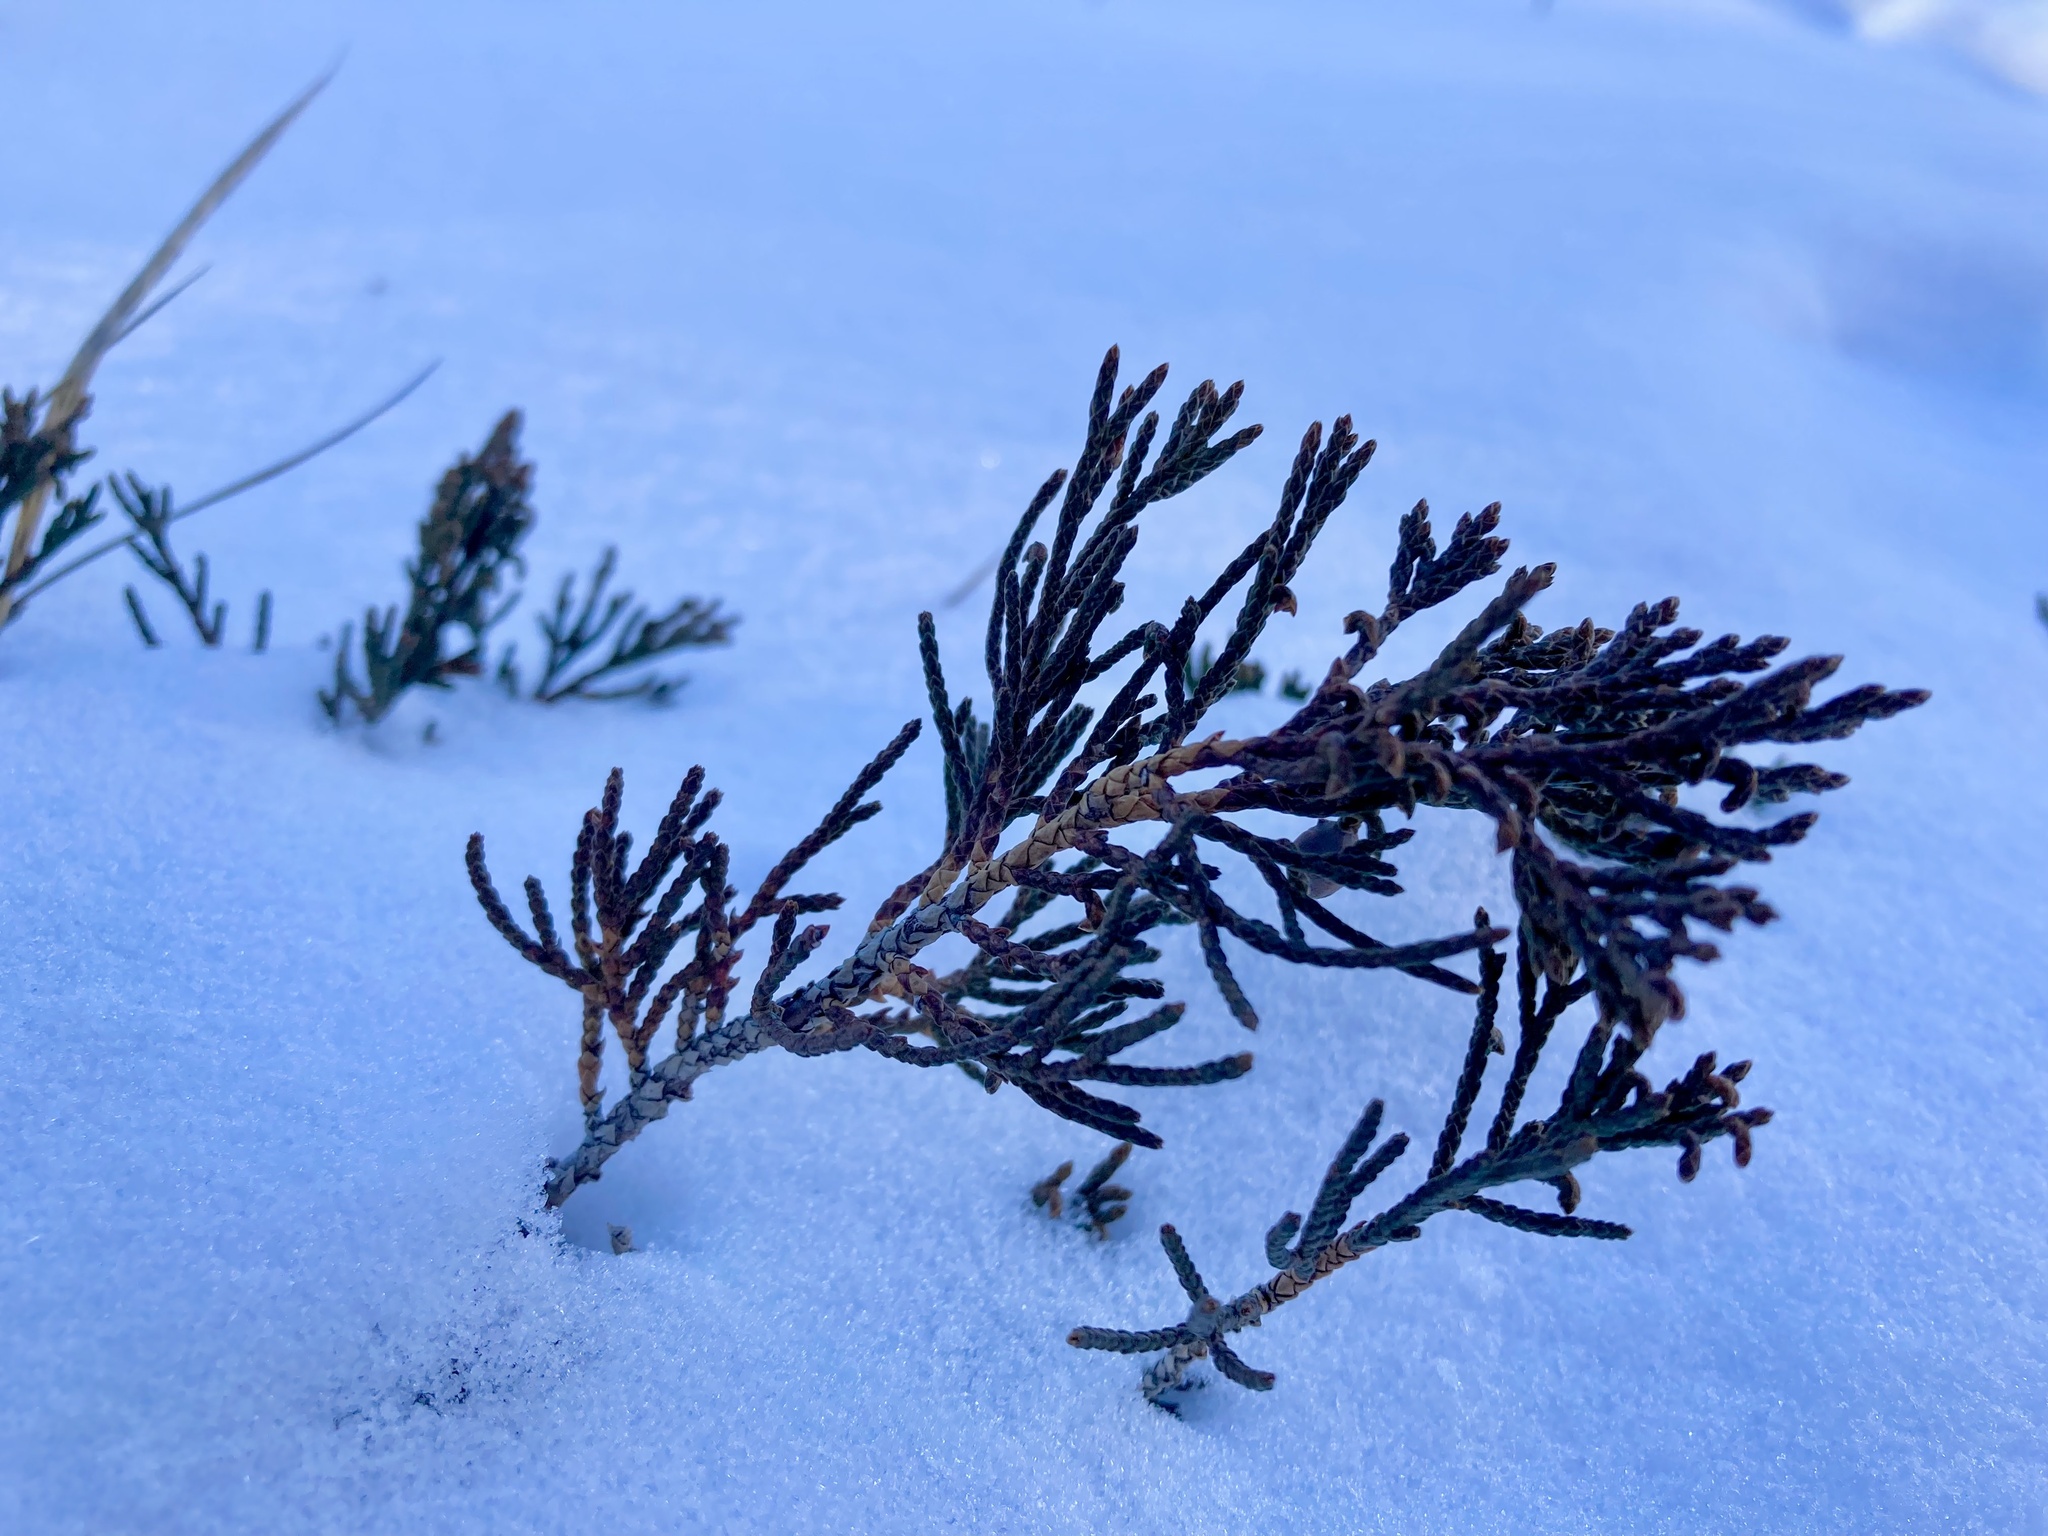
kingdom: Plantae
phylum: Tracheophyta
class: Pinopsida
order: Pinales
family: Cupressaceae
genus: Juniperus
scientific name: Juniperus horizontalis
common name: Creeping juniper
